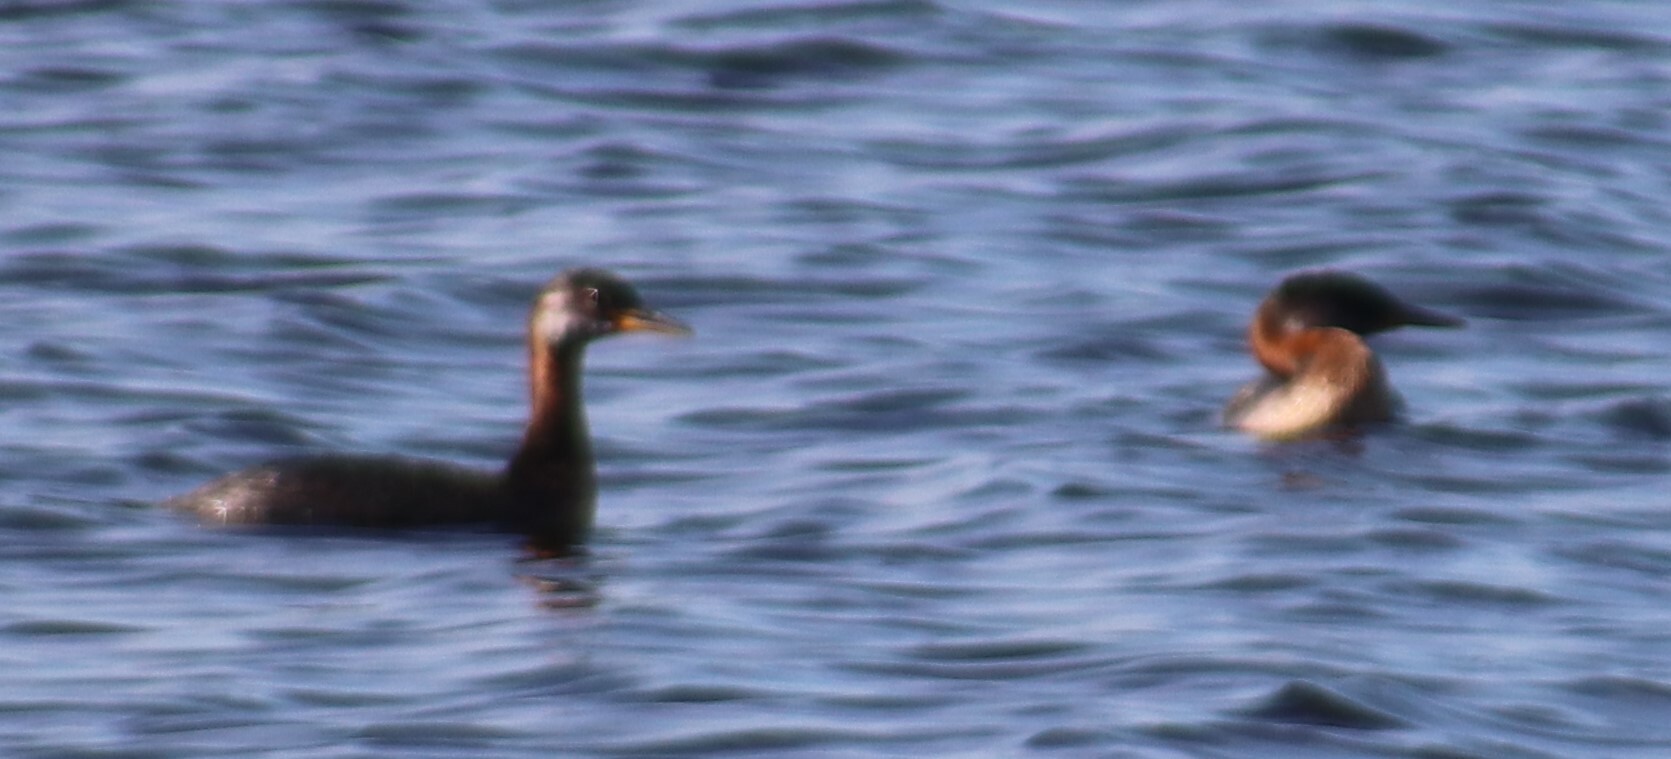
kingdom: Animalia
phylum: Chordata
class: Aves
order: Podicipediformes
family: Podicipedidae
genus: Podiceps
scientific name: Podiceps grisegena
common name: Red-necked grebe
